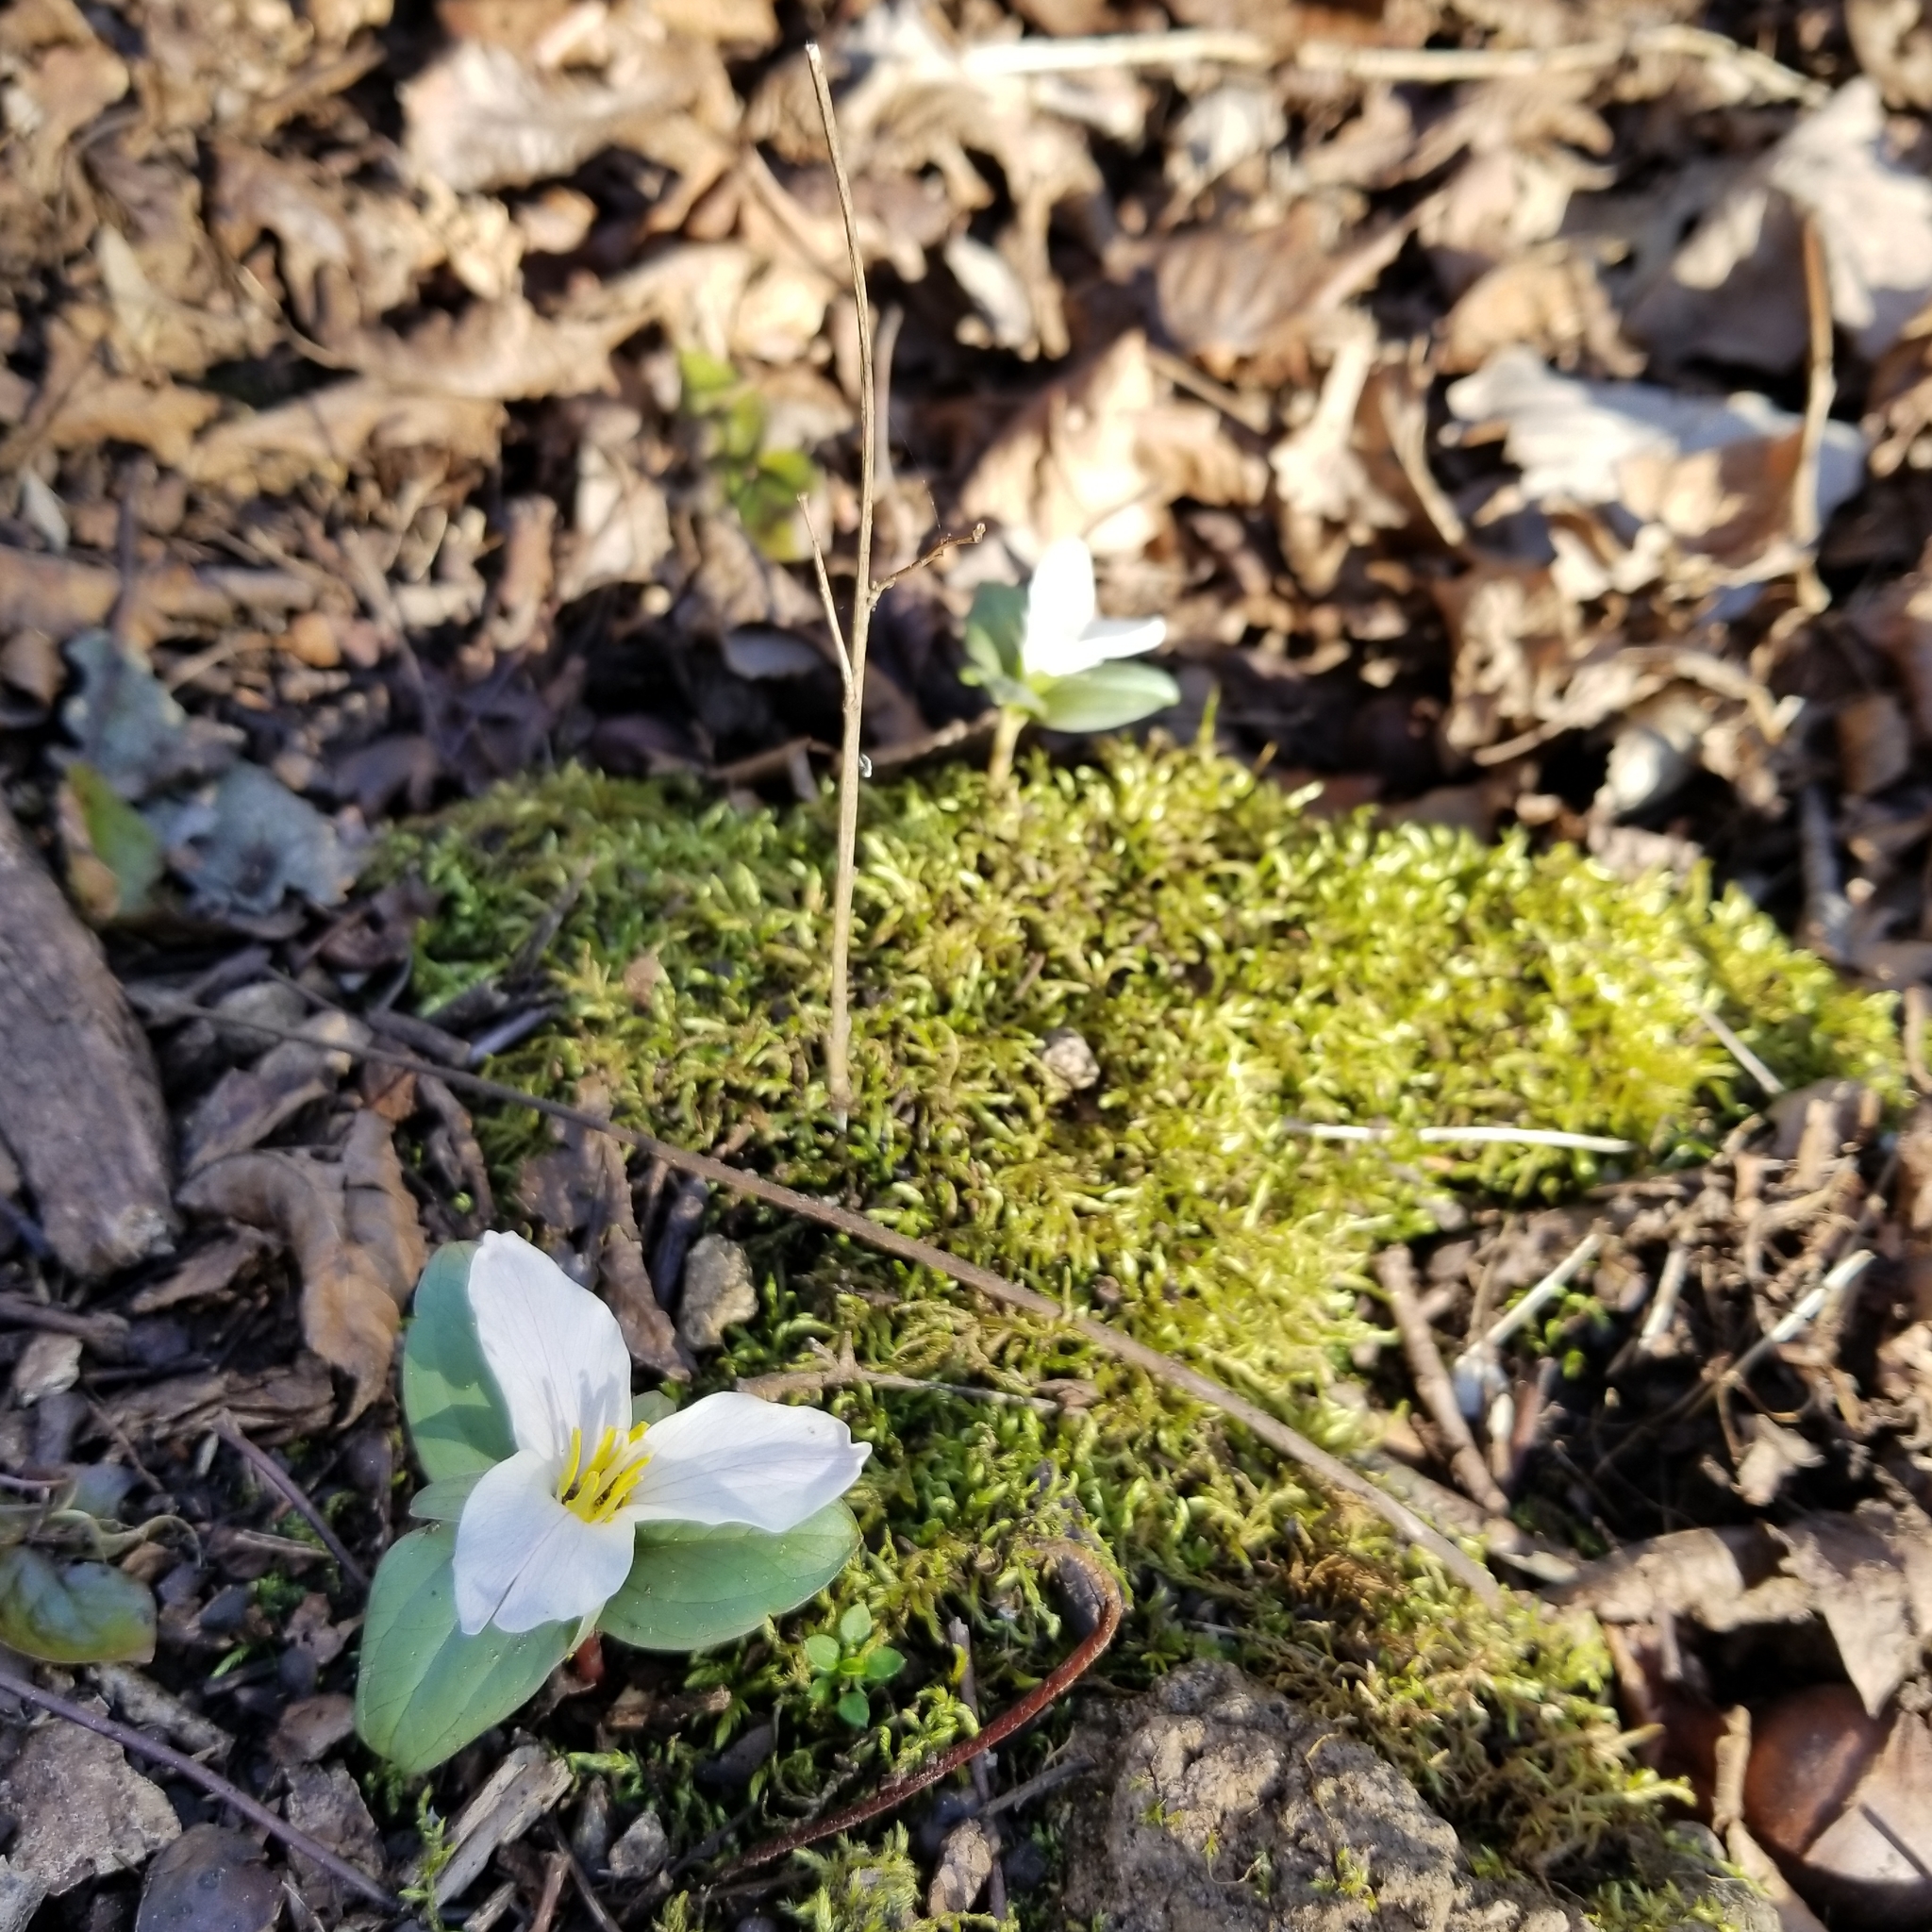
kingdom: Plantae
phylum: Tracheophyta
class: Liliopsida
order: Liliales
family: Melanthiaceae
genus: Trillium
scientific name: Trillium nivale
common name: Dwarf white trillium
